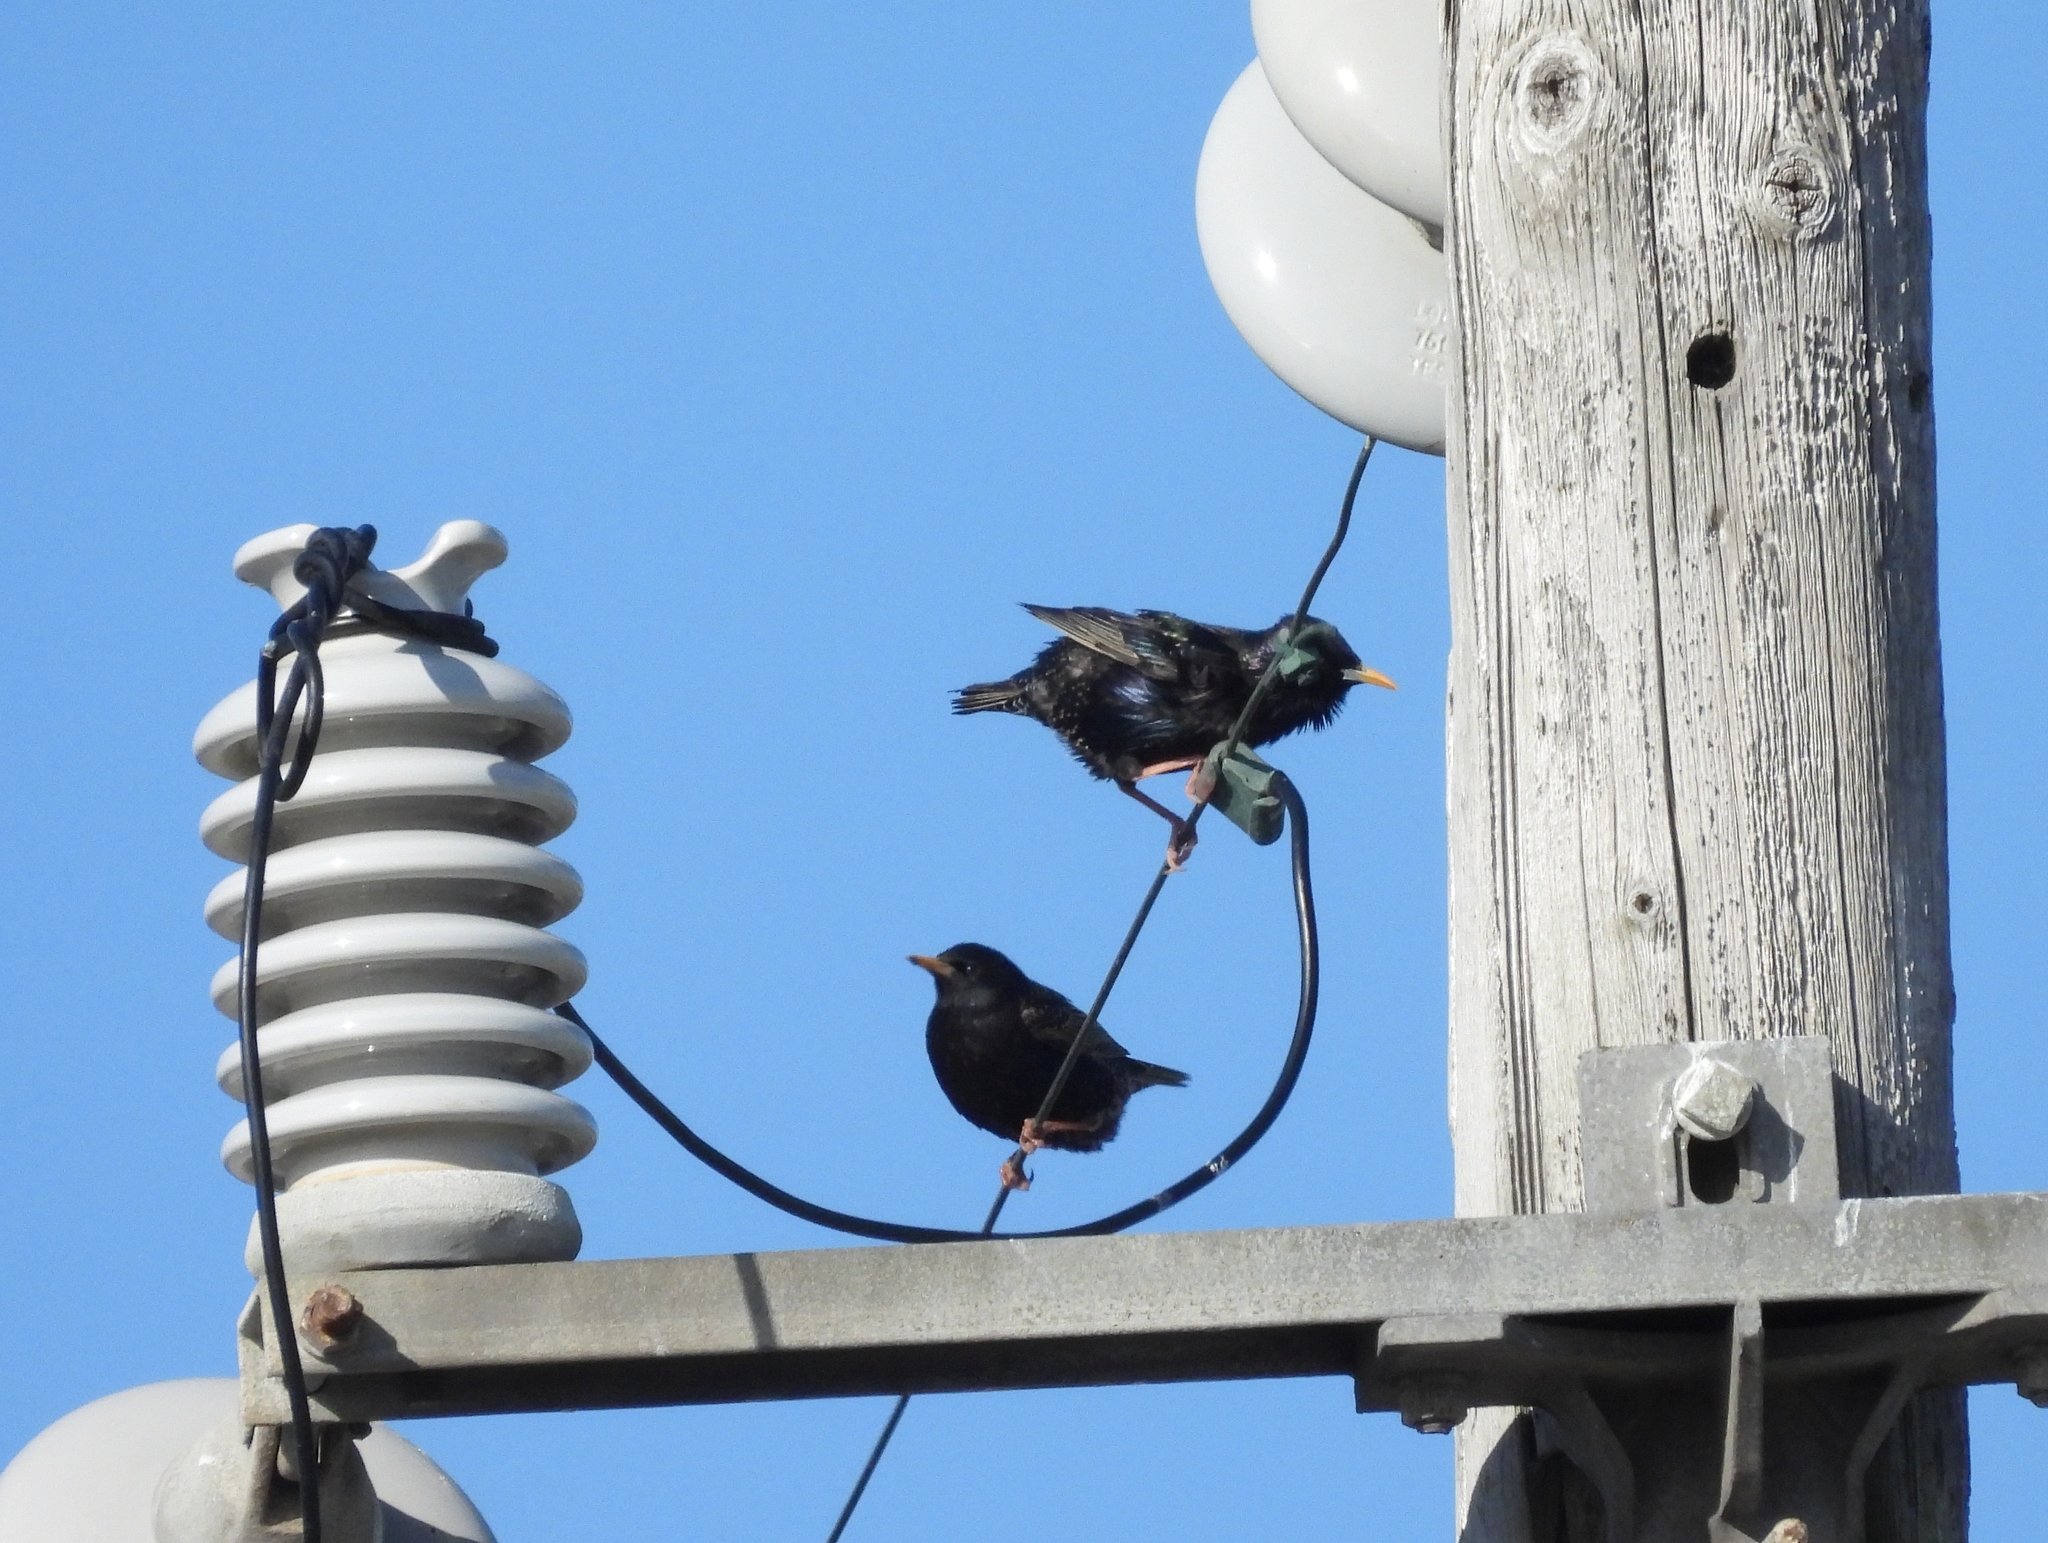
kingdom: Animalia
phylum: Chordata
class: Aves
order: Passeriformes
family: Sturnidae
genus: Sturnus
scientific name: Sturnus vulgaris
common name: Common starling
